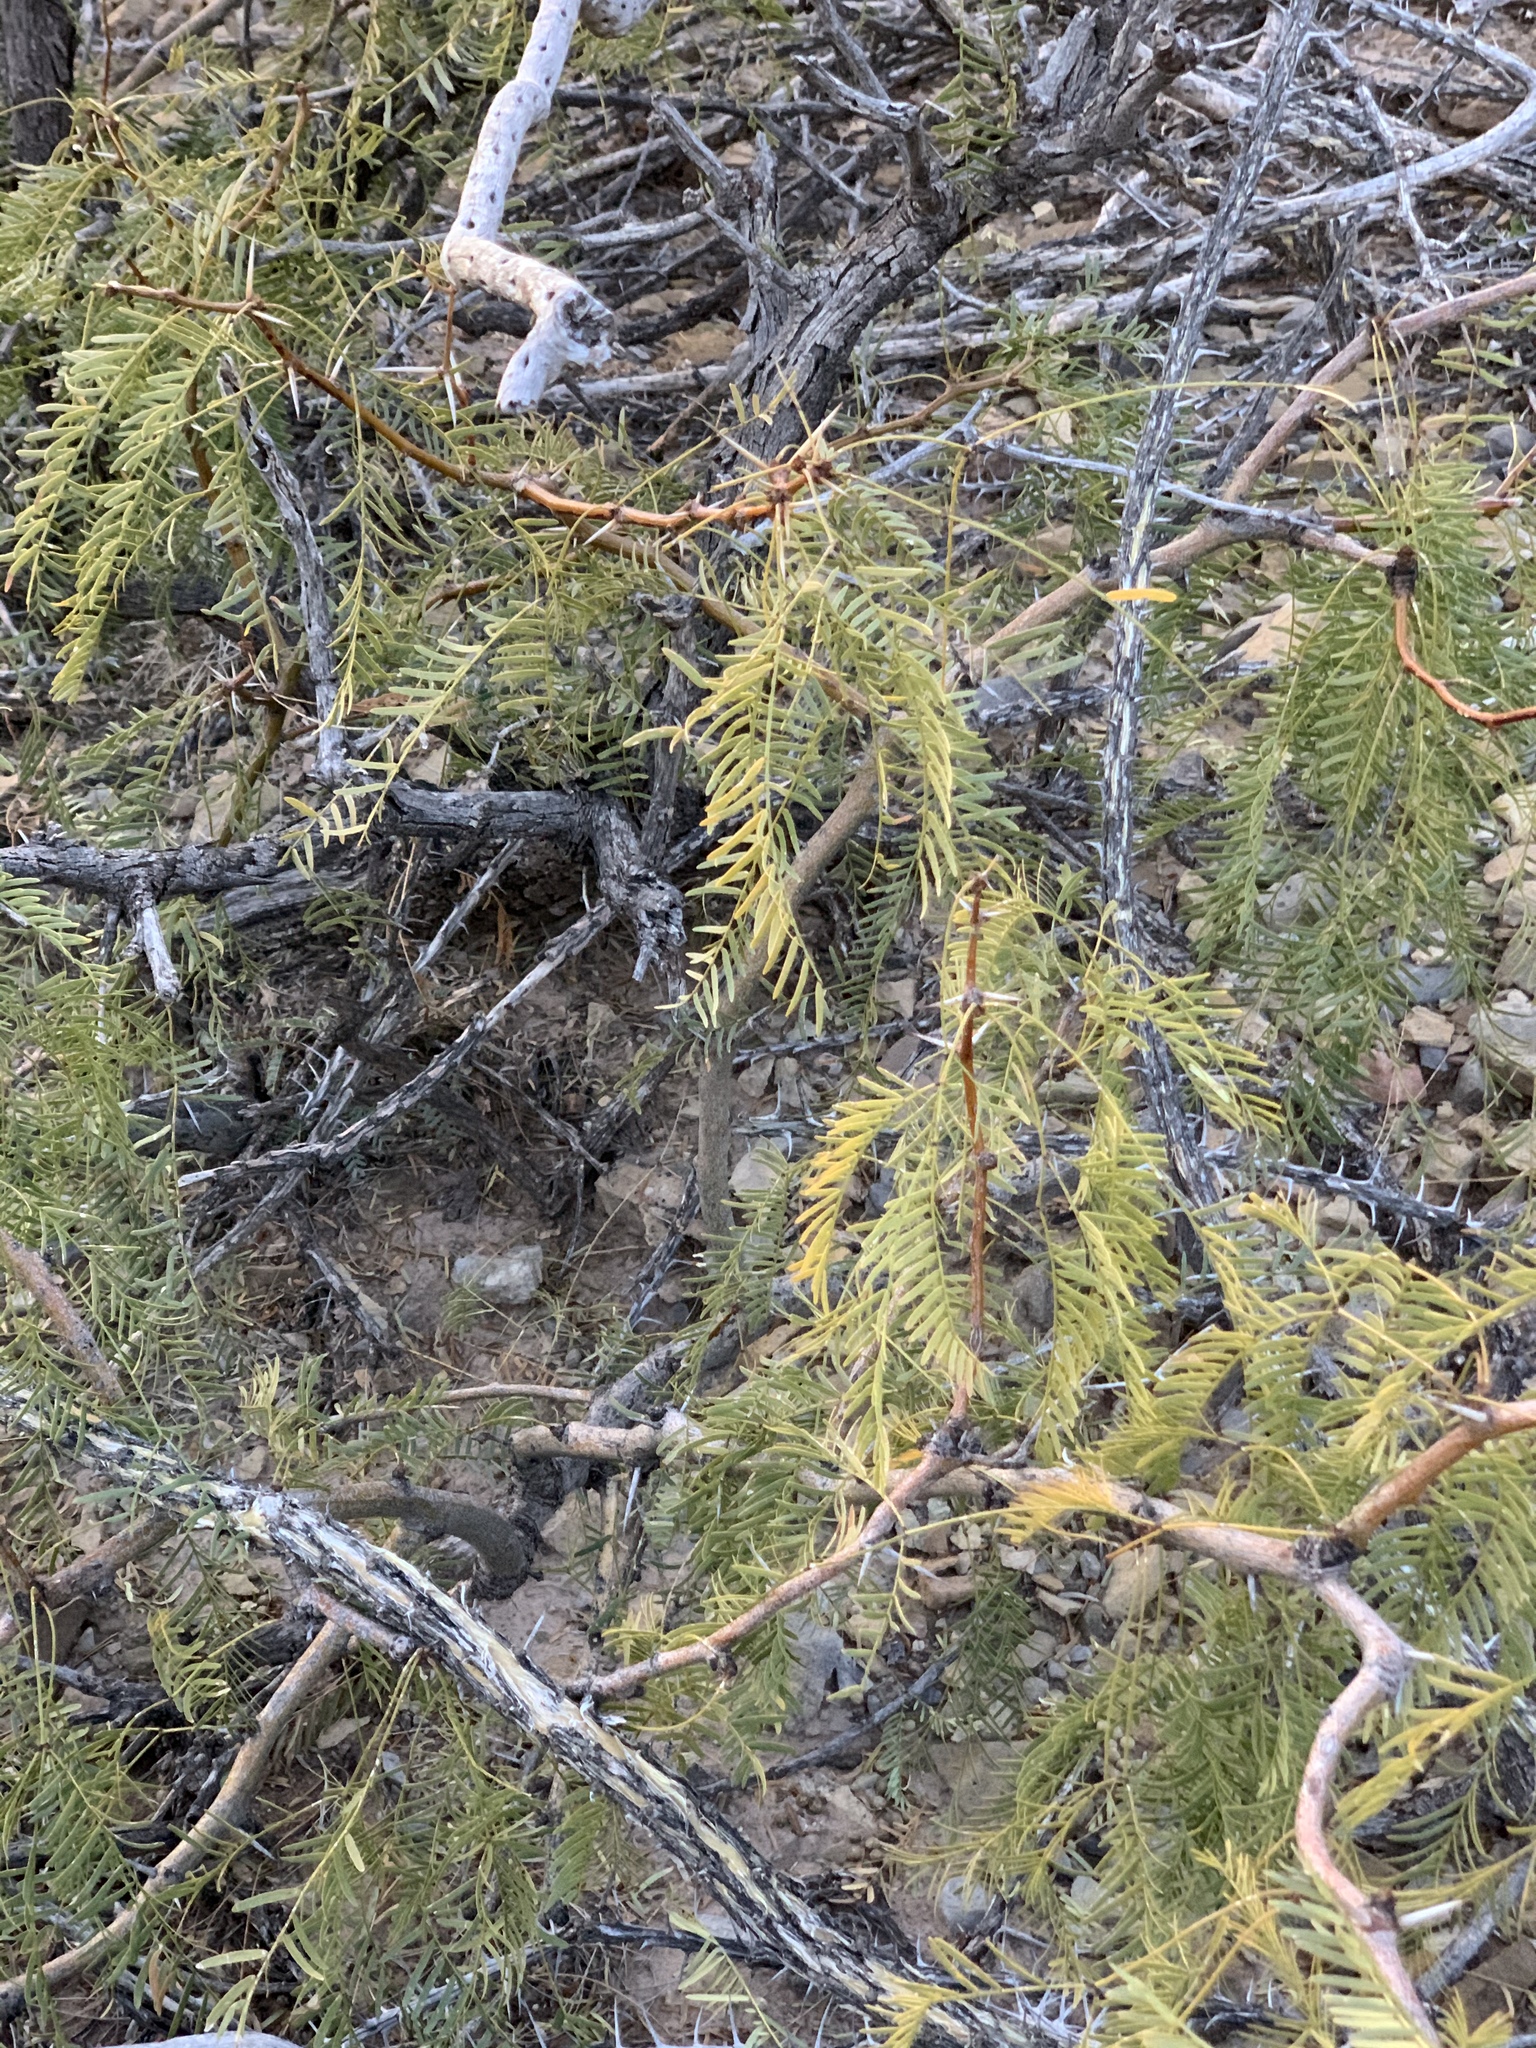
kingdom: Plantae
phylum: Tracheophyta
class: Magnoliopsida
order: Fabales
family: Fabaceae
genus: Prosopis
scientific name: Prosopis glandulosa
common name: Honey mesquite
